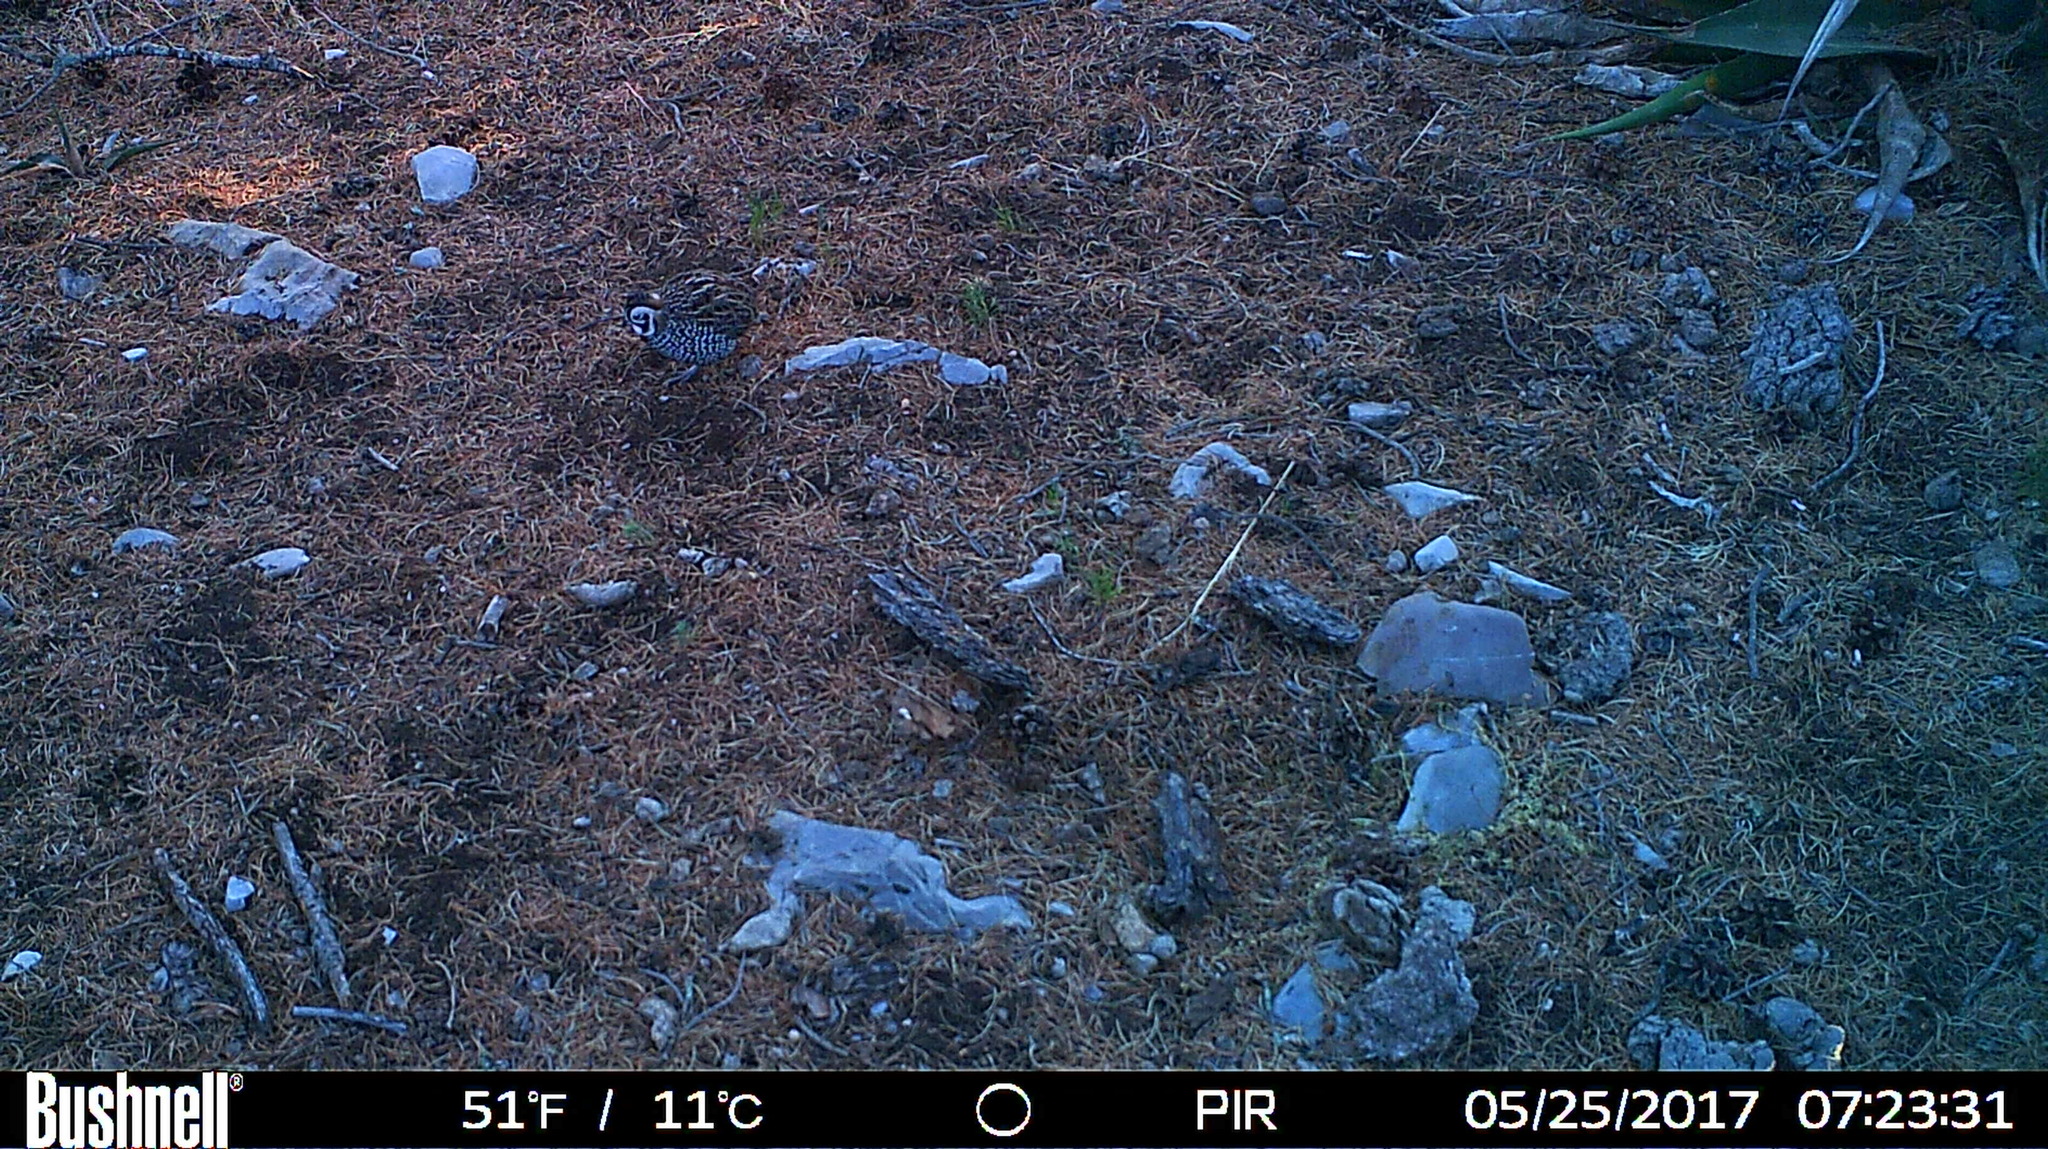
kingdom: Animalia
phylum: Chordata
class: Aves
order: Galliformes
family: Odontophoridae
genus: Cyrtonyx
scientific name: Cyrtonyx montezumae
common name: Montezuma quail
